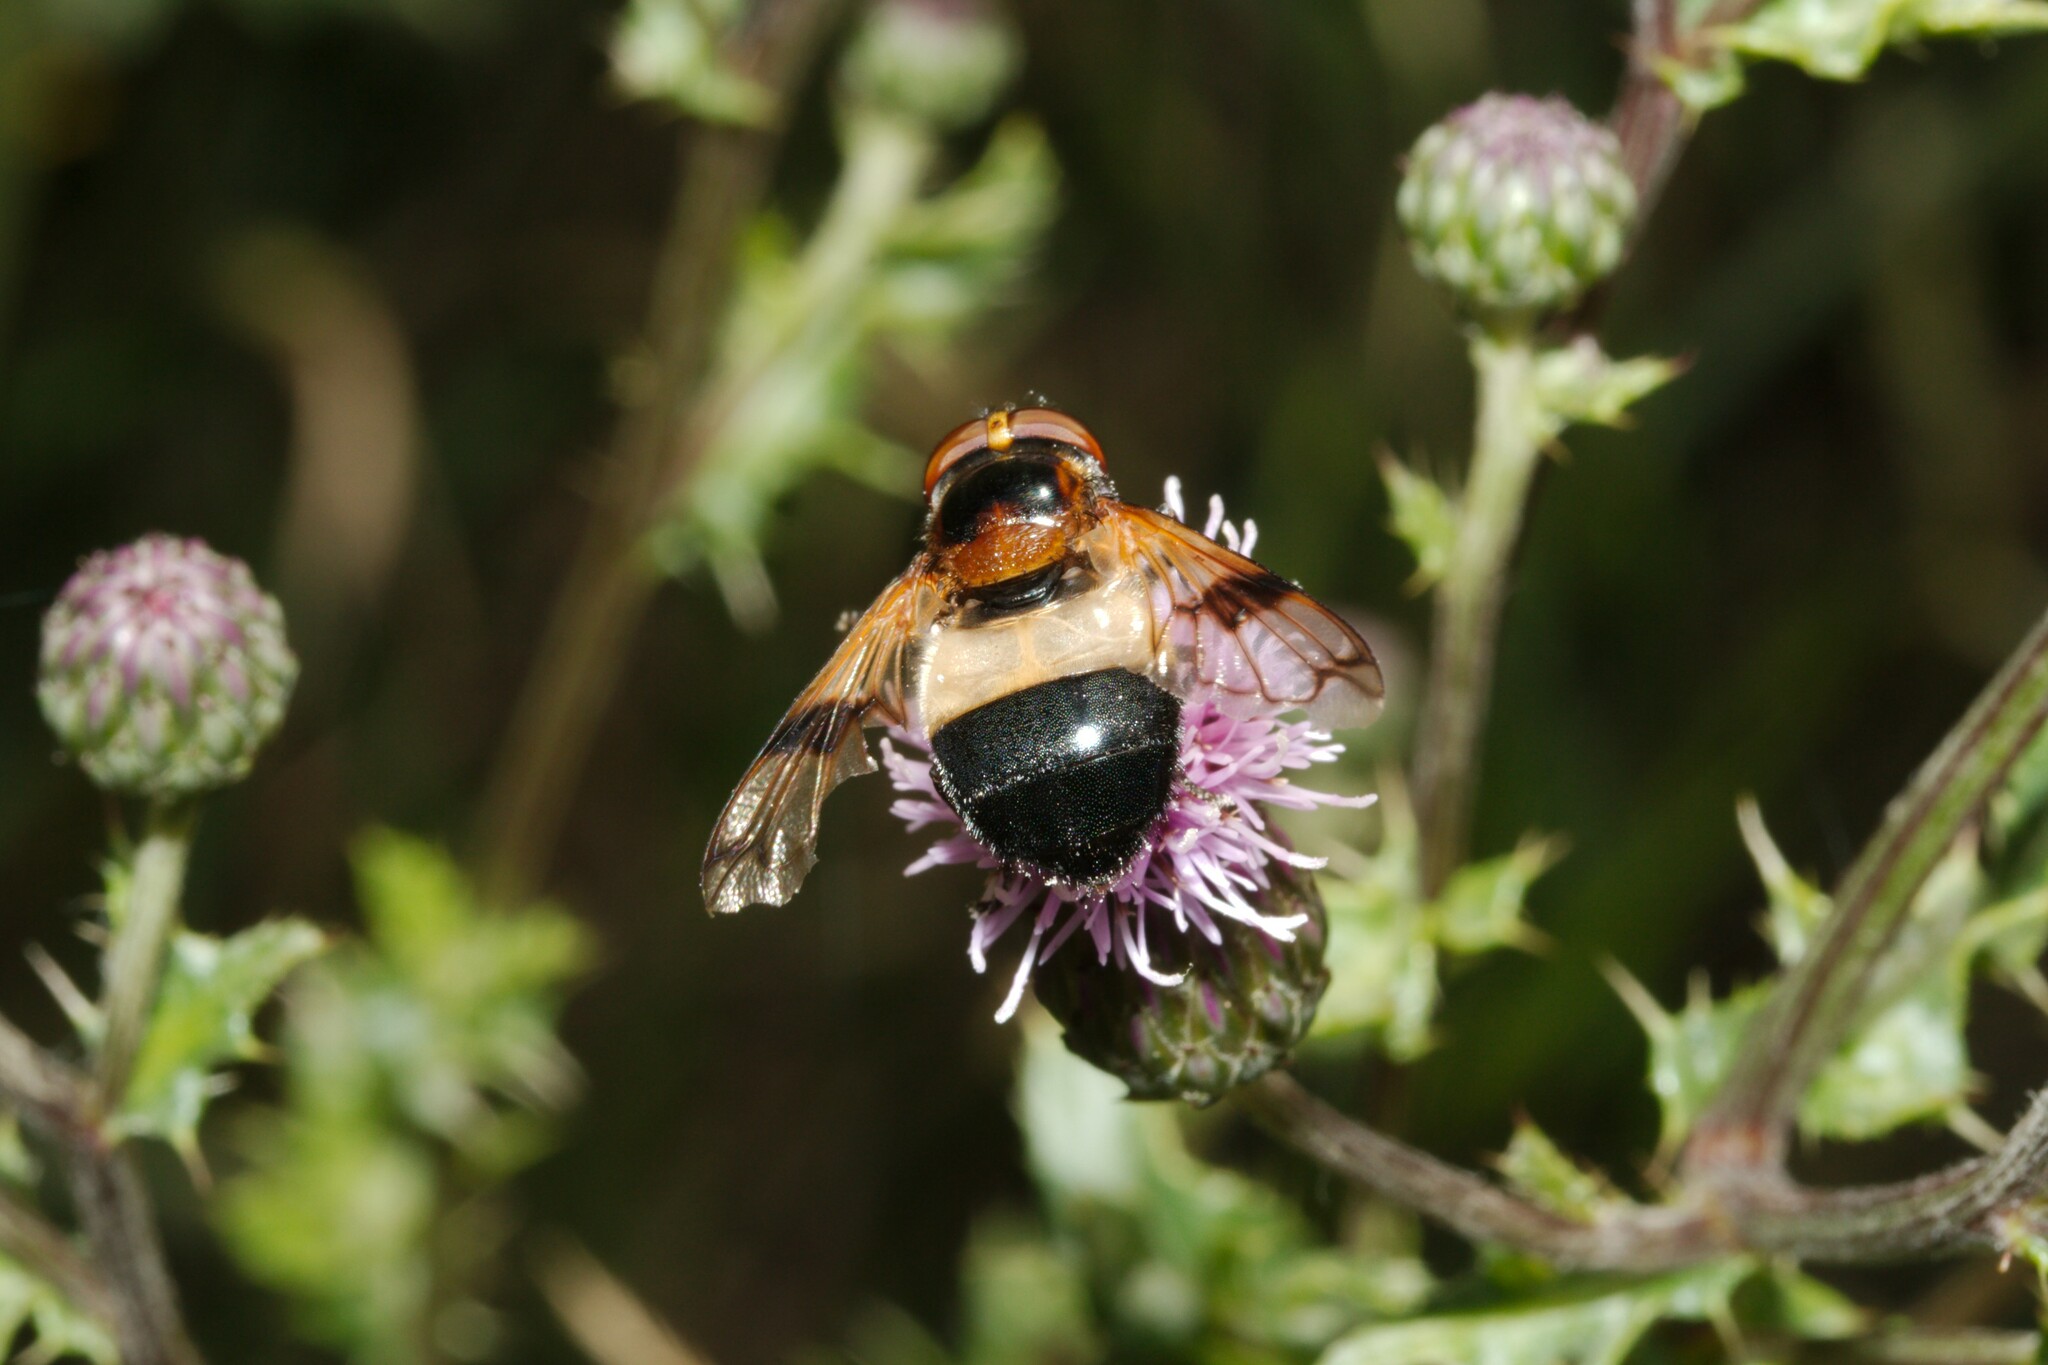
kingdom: Animalia
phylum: Arthropoda
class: Insecta
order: Diptera
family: Syrphidae
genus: Volucella
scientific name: Volucella pellucens
